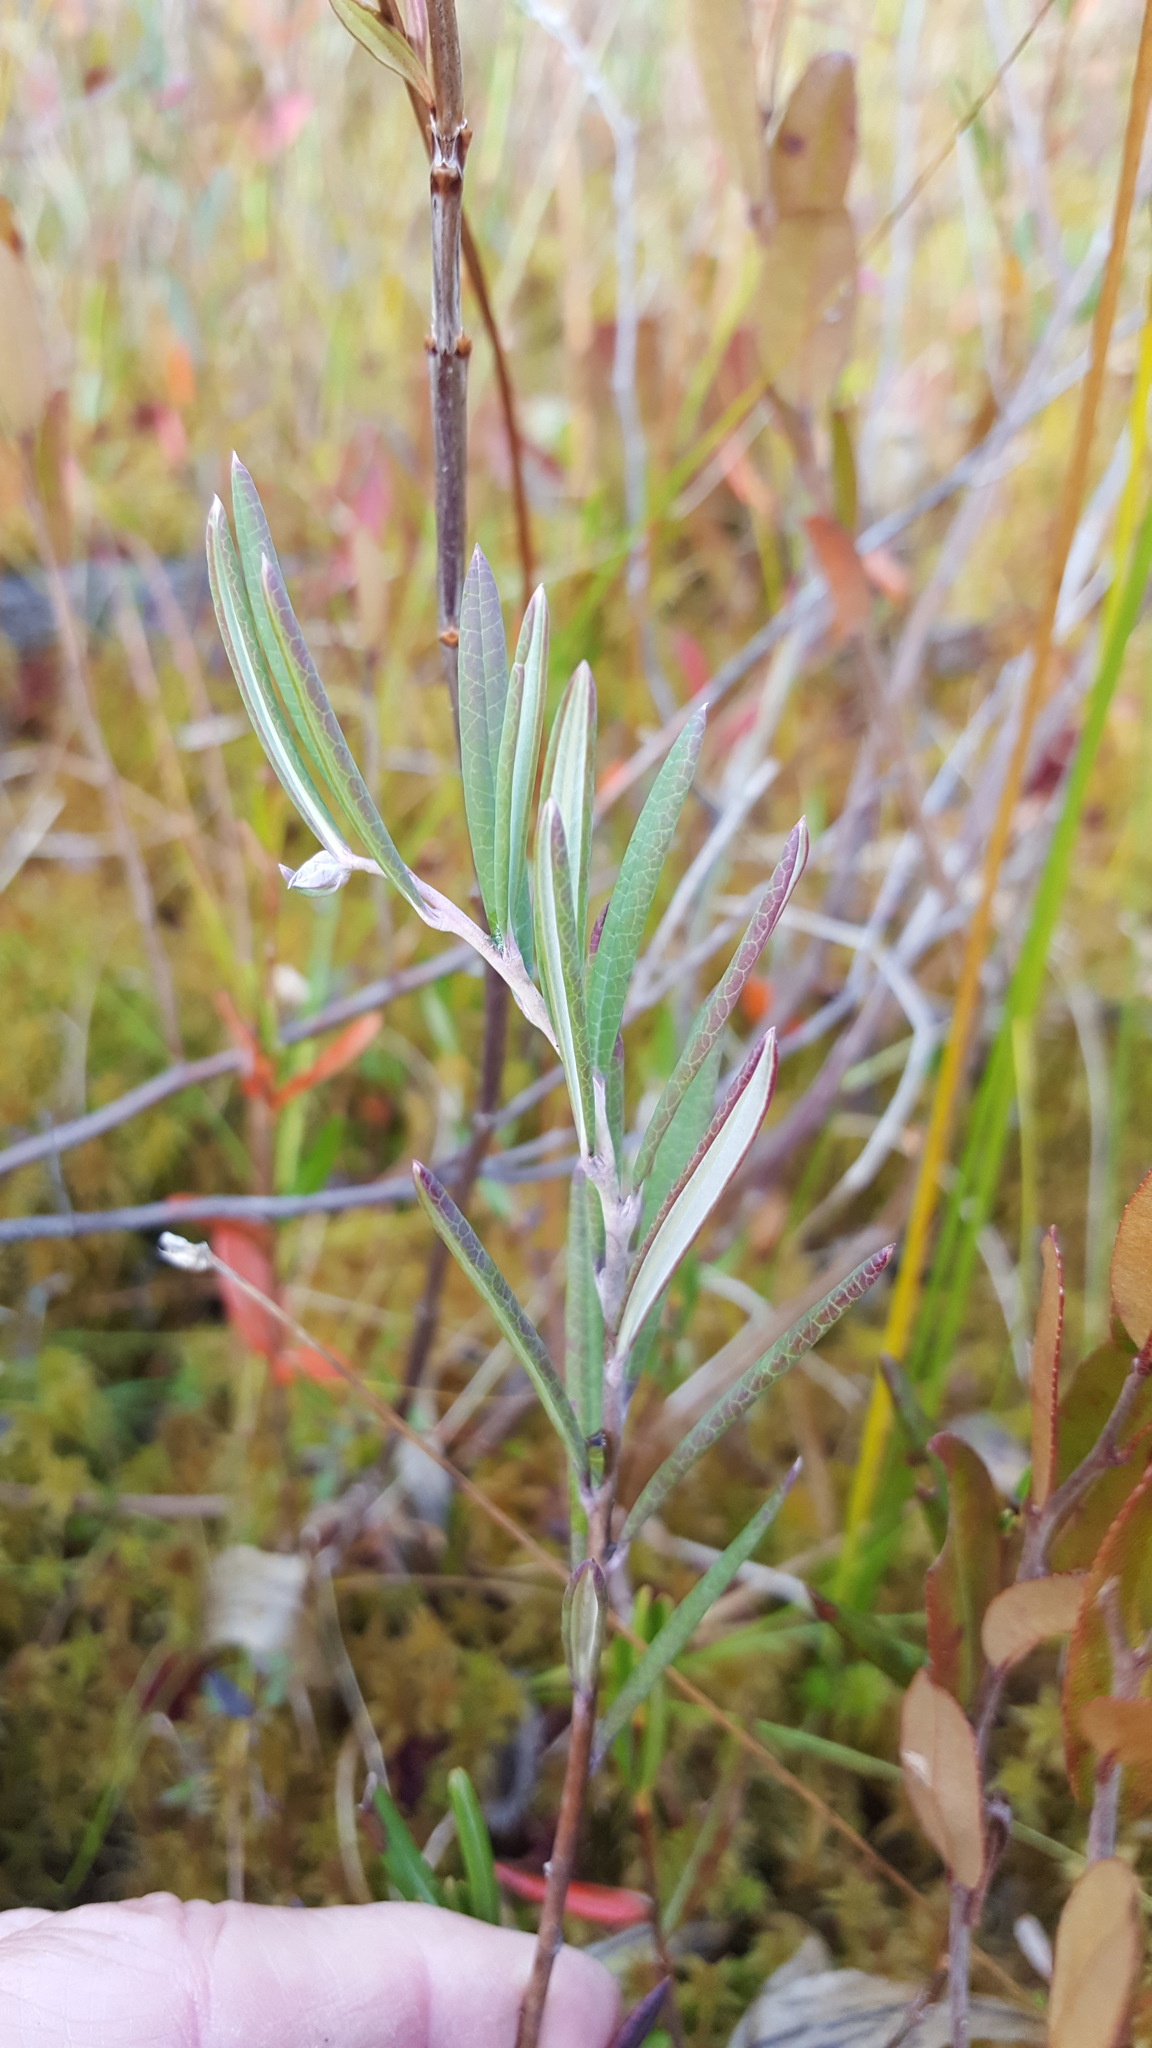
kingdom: Plantae
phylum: Tracheophyta
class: Magnoliopsida
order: Ericales
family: Ericaceae
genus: Andromeda
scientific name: Andromeda polifolia
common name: Bog-rosemary
